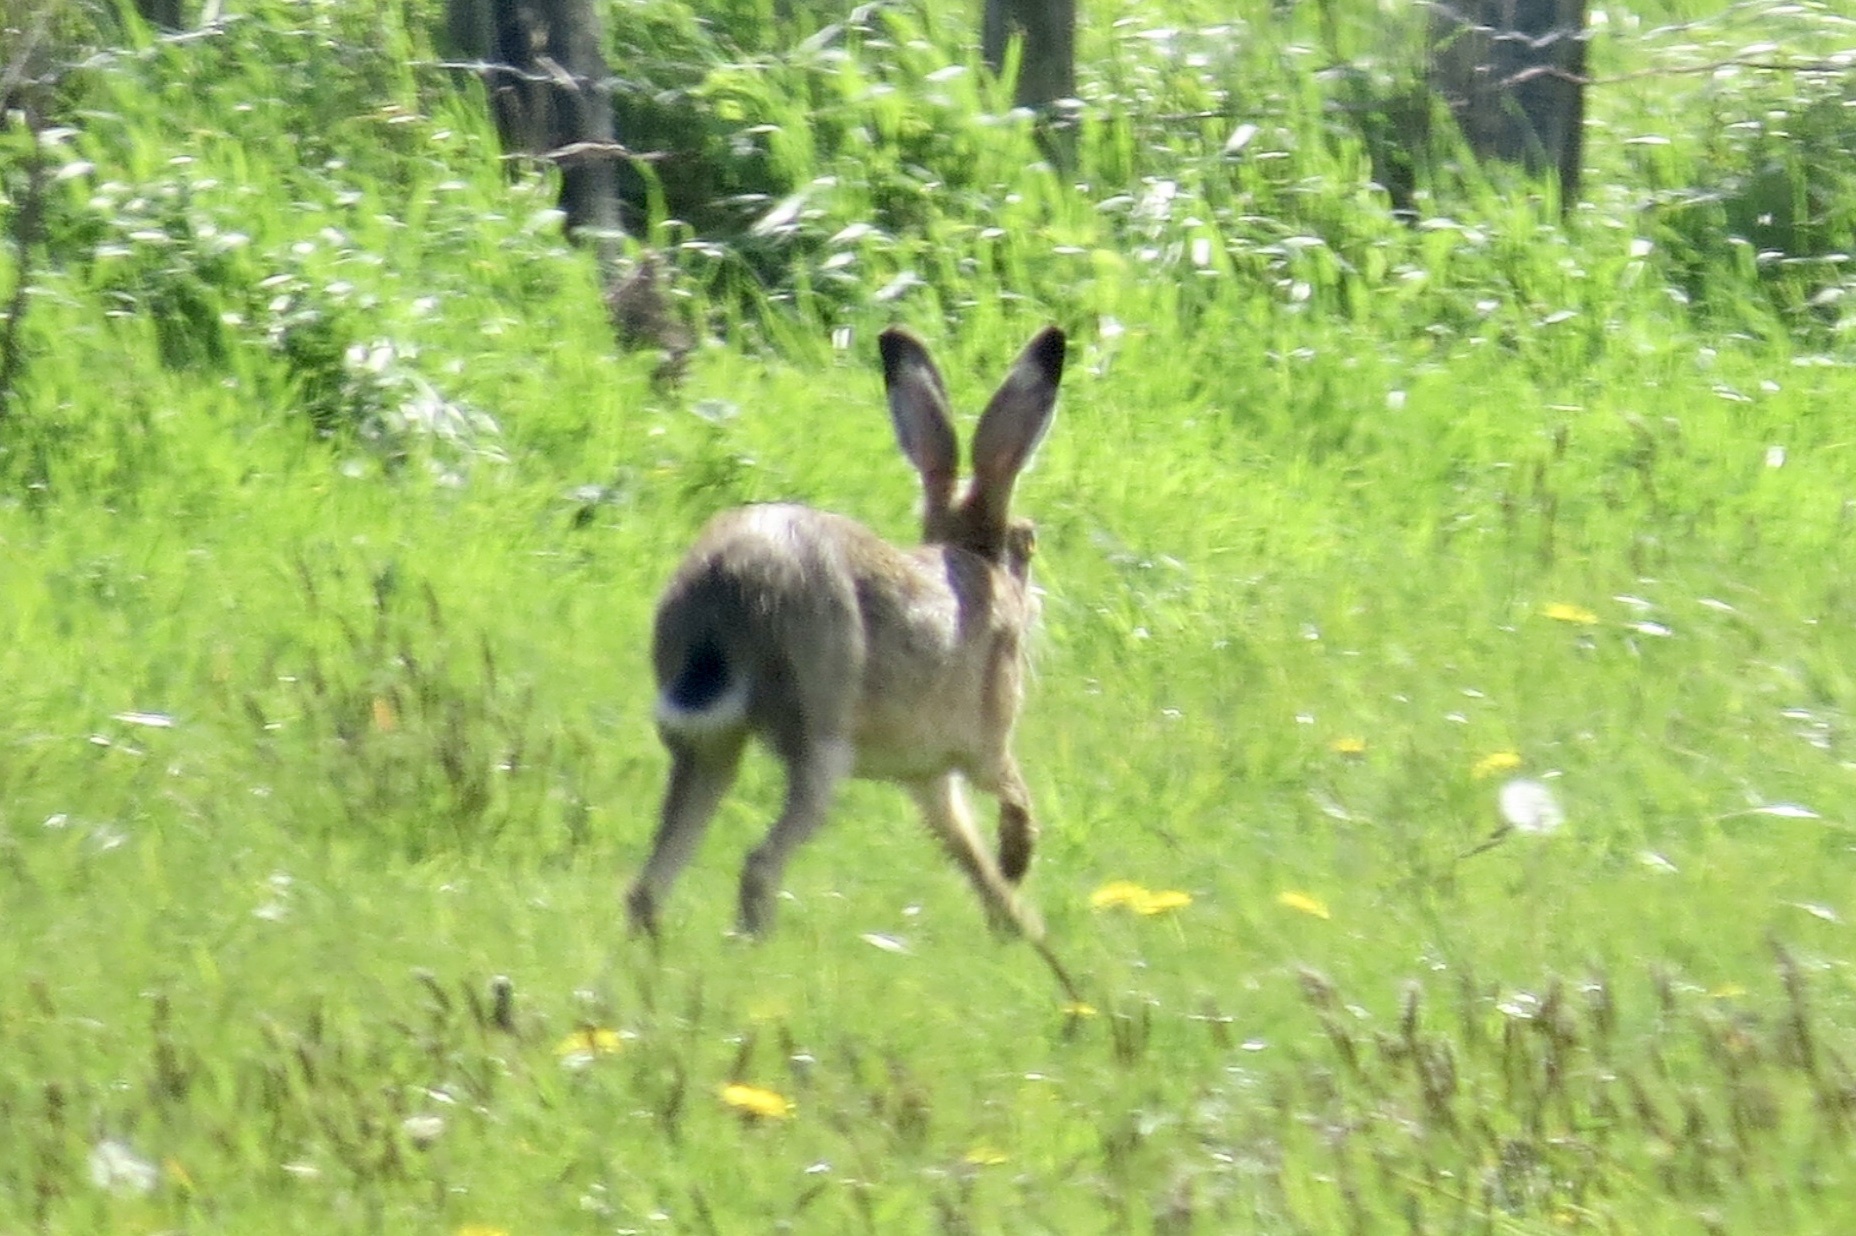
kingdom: Animalia
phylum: Chordata
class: Mammalia
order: Lagomorpha
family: Leporidae
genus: Lepus
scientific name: Lepus europaeus
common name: European hare
